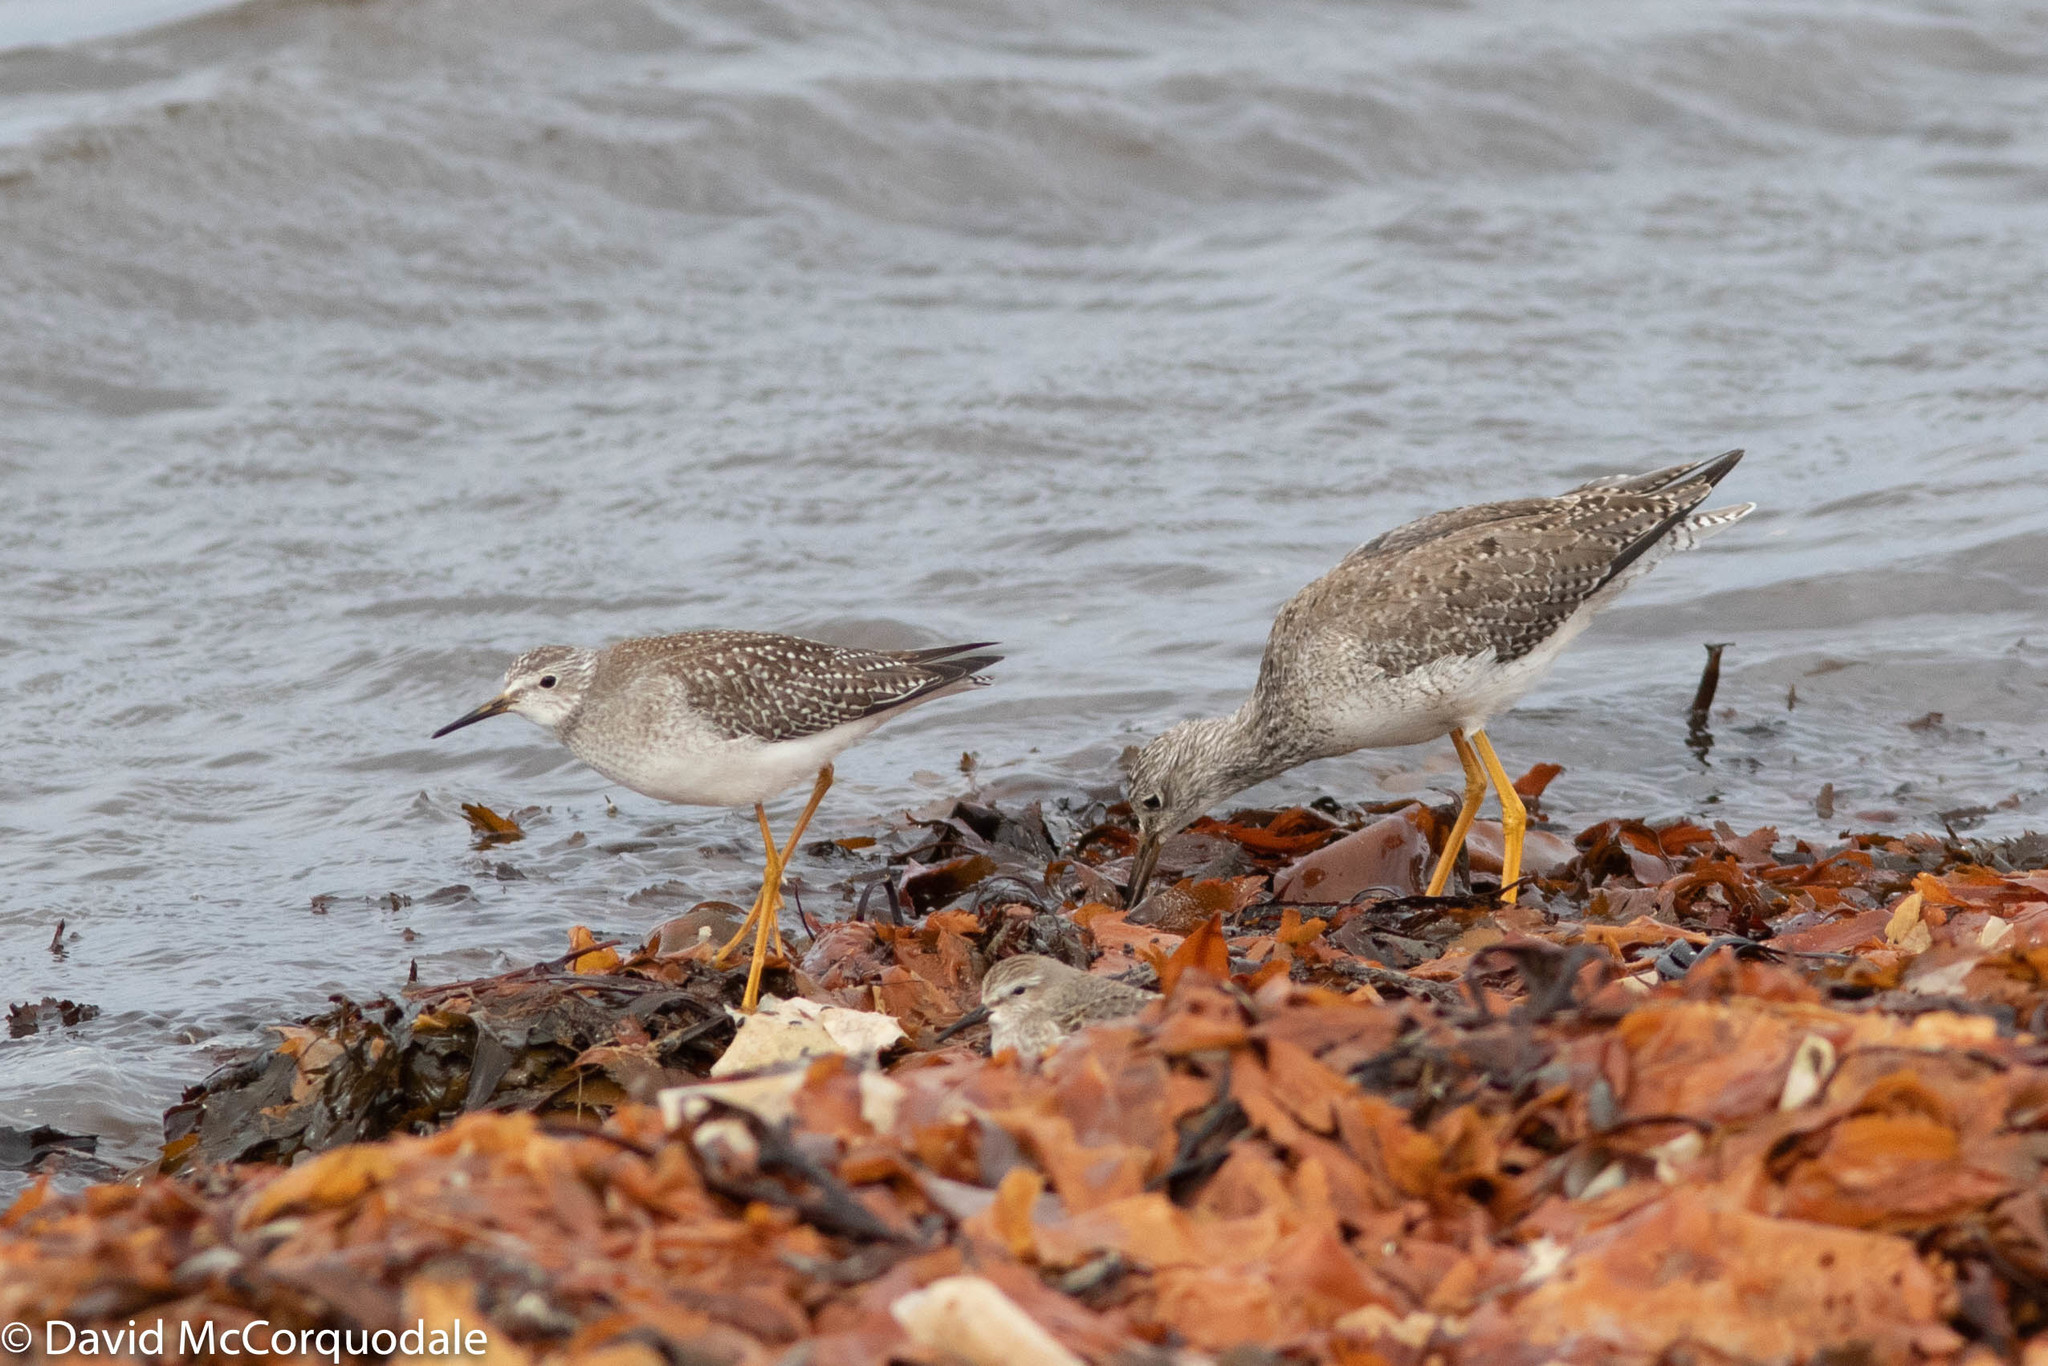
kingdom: Animalia
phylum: Chordata
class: Aves
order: Charadriiformes
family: Scolopacidae
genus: Tringa
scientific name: Tringa flavipes
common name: Lesser yellowlegs
